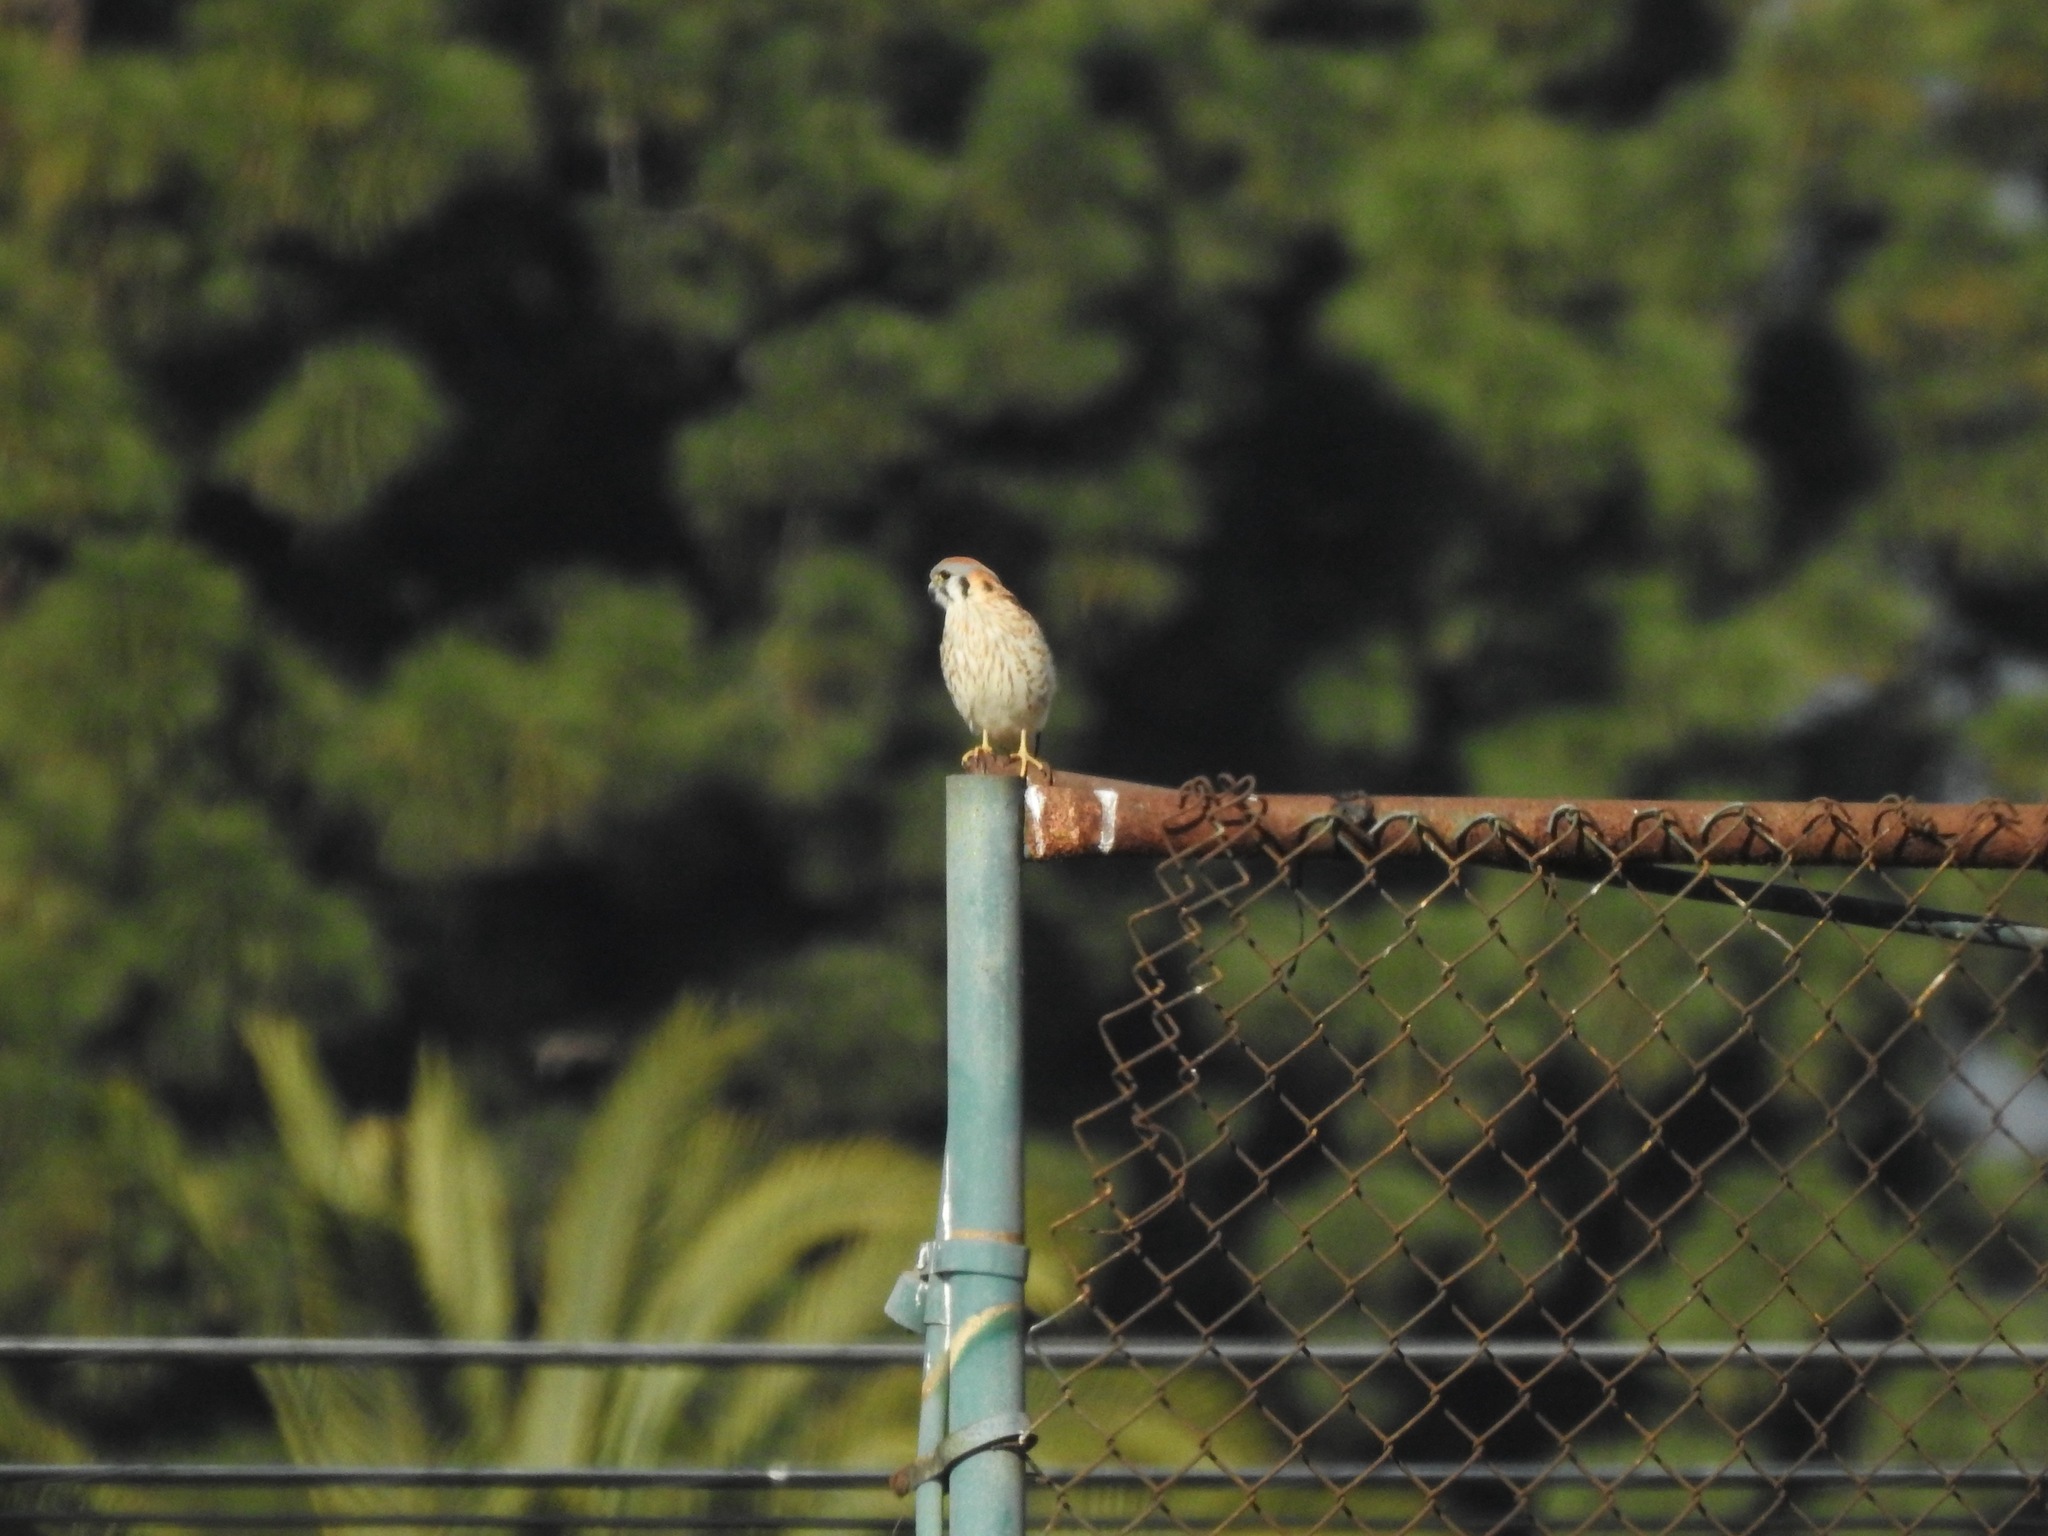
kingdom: Animalia
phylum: Chordata
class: Aves
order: Falconiformes
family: Falconidae
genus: Falco
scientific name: Falco sparverius
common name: American kestrel
